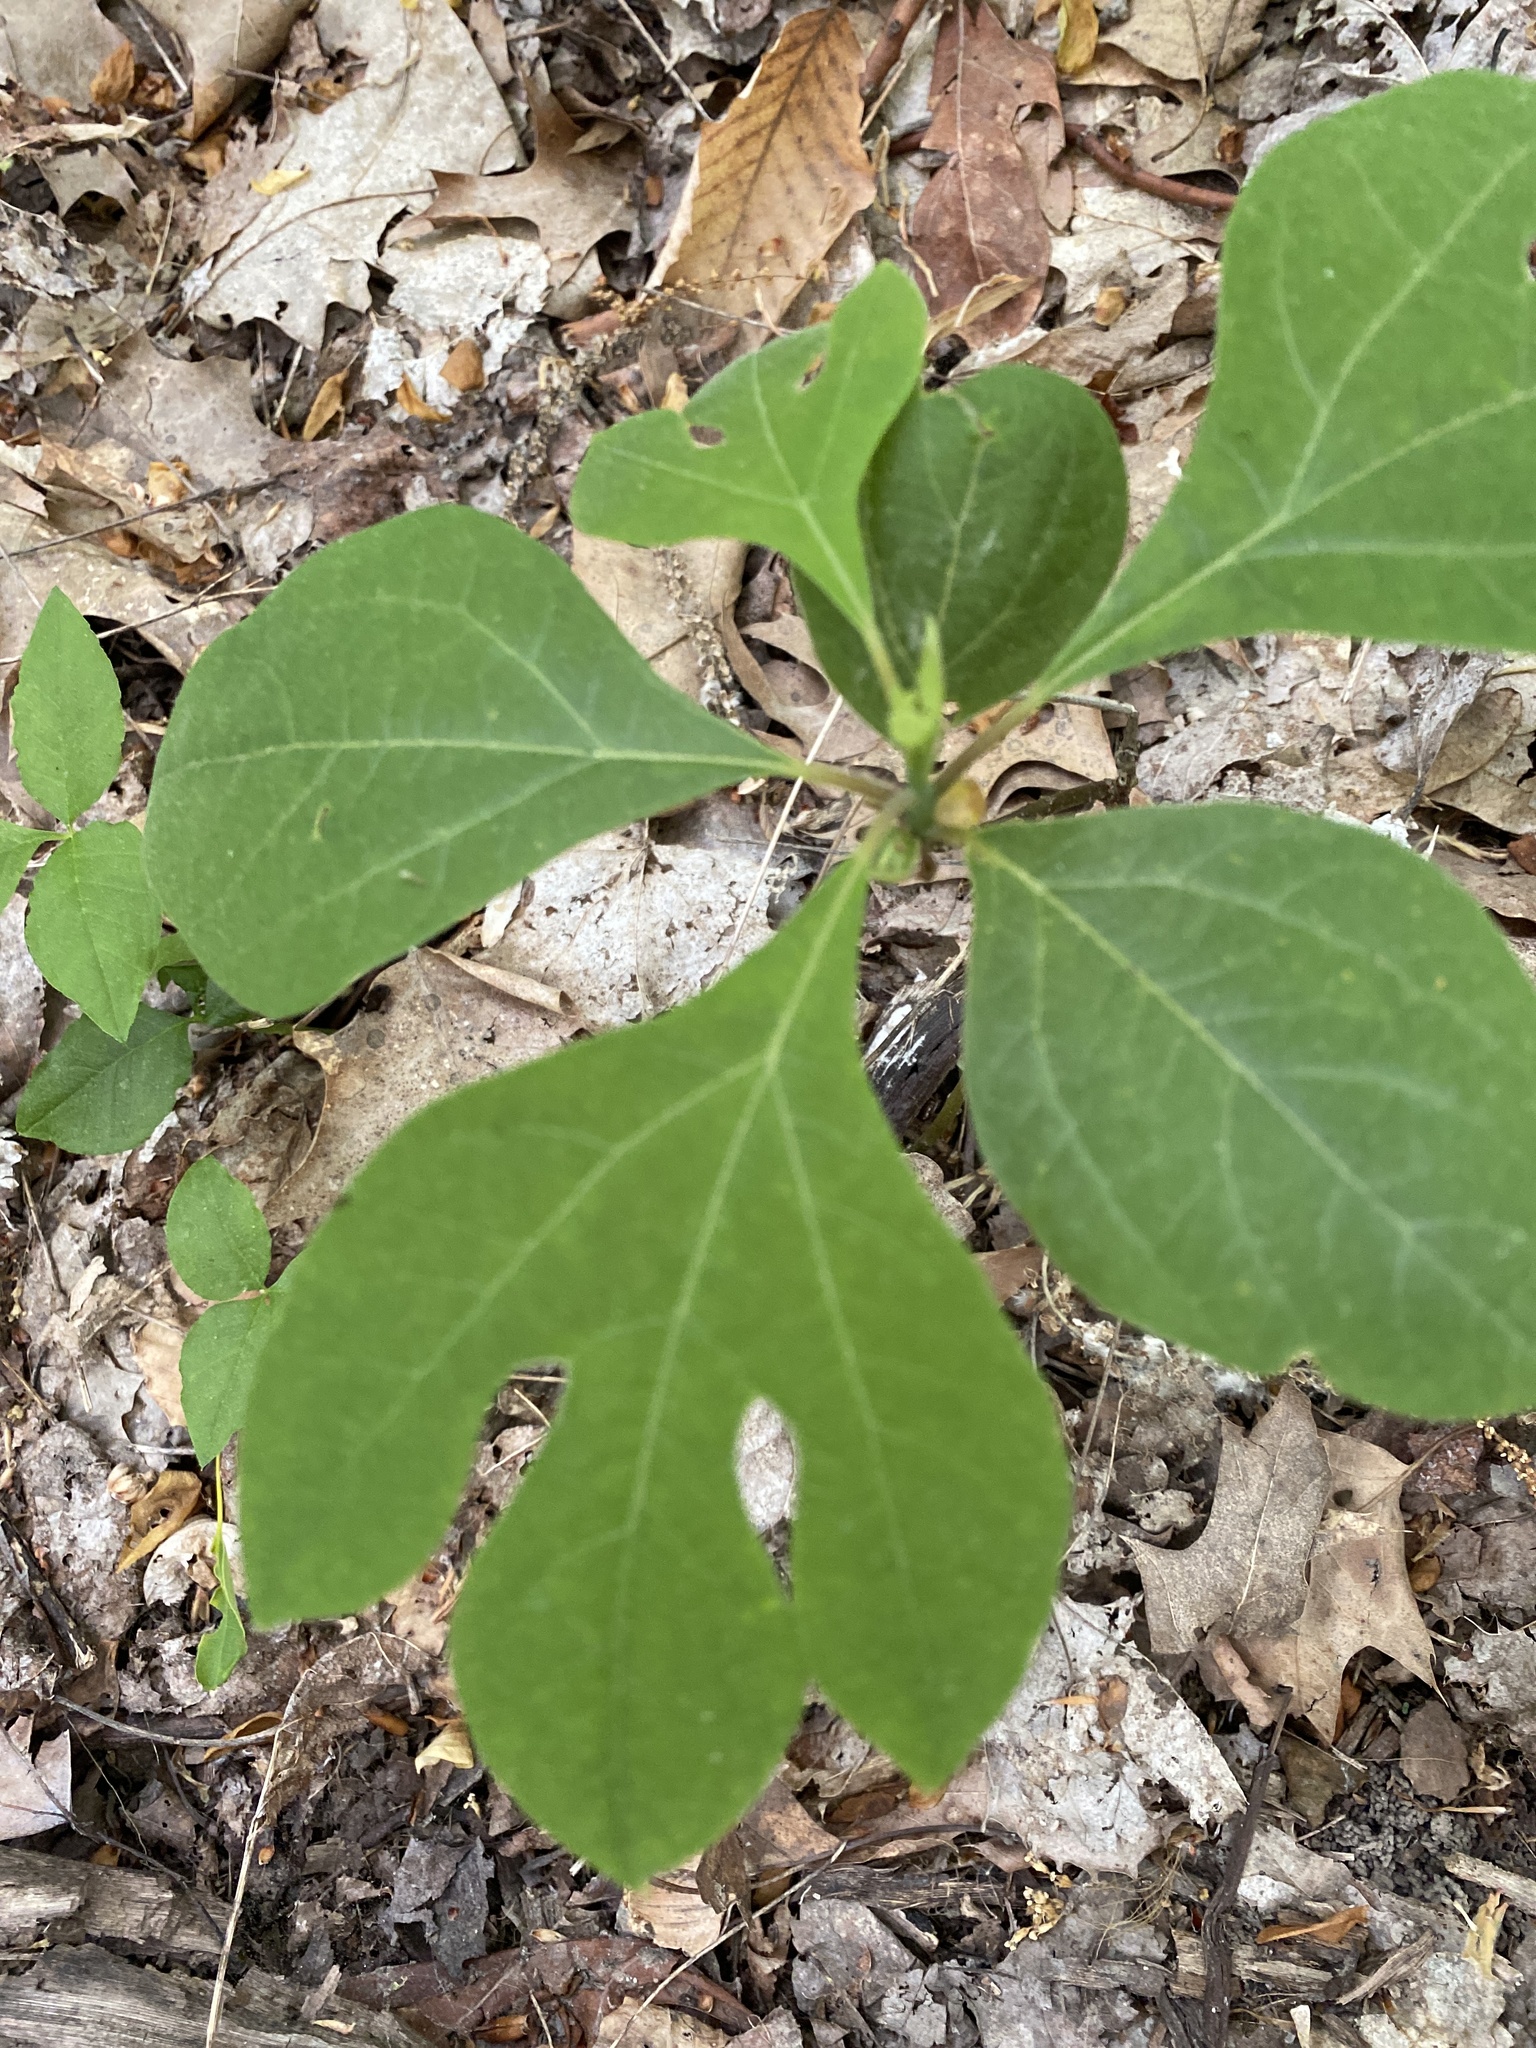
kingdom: Plantae
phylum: Tracheophyta
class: Magnoliopsida
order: Laurales
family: Lauraceae
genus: Sassafras
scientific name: Sassafras albidum
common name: Sassafras
